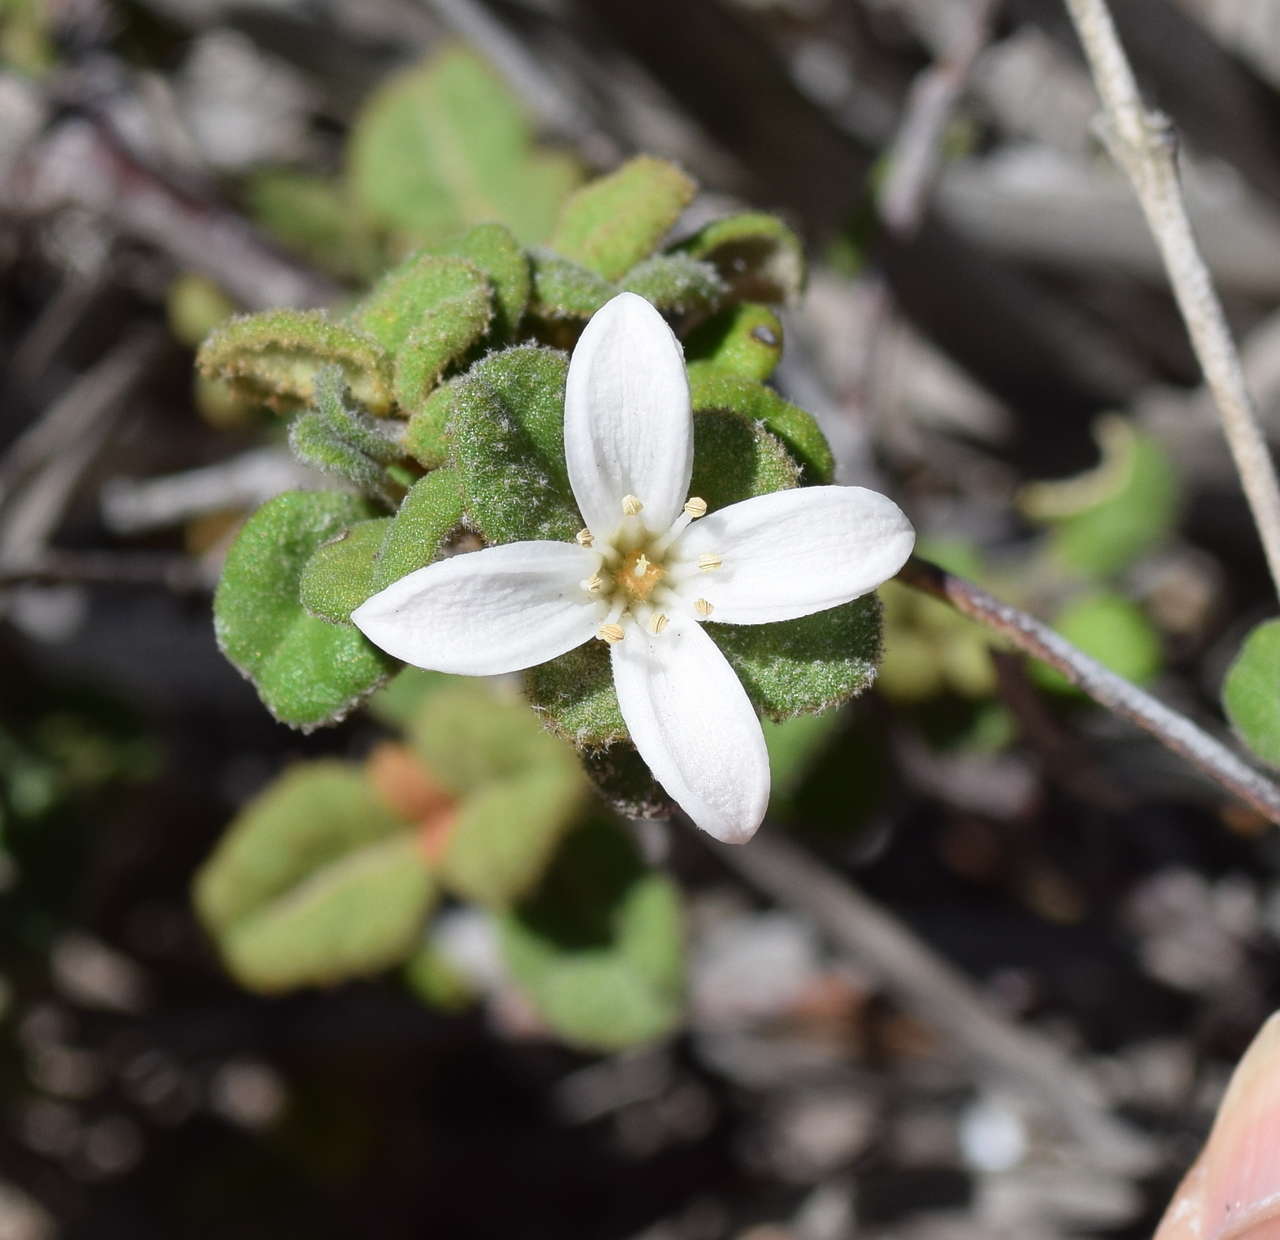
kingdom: Plantae
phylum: Tracheophyta
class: Magnoliopsida
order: Sapindales
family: Rutaceae
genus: Correa
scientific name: Correa alba
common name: White correa
